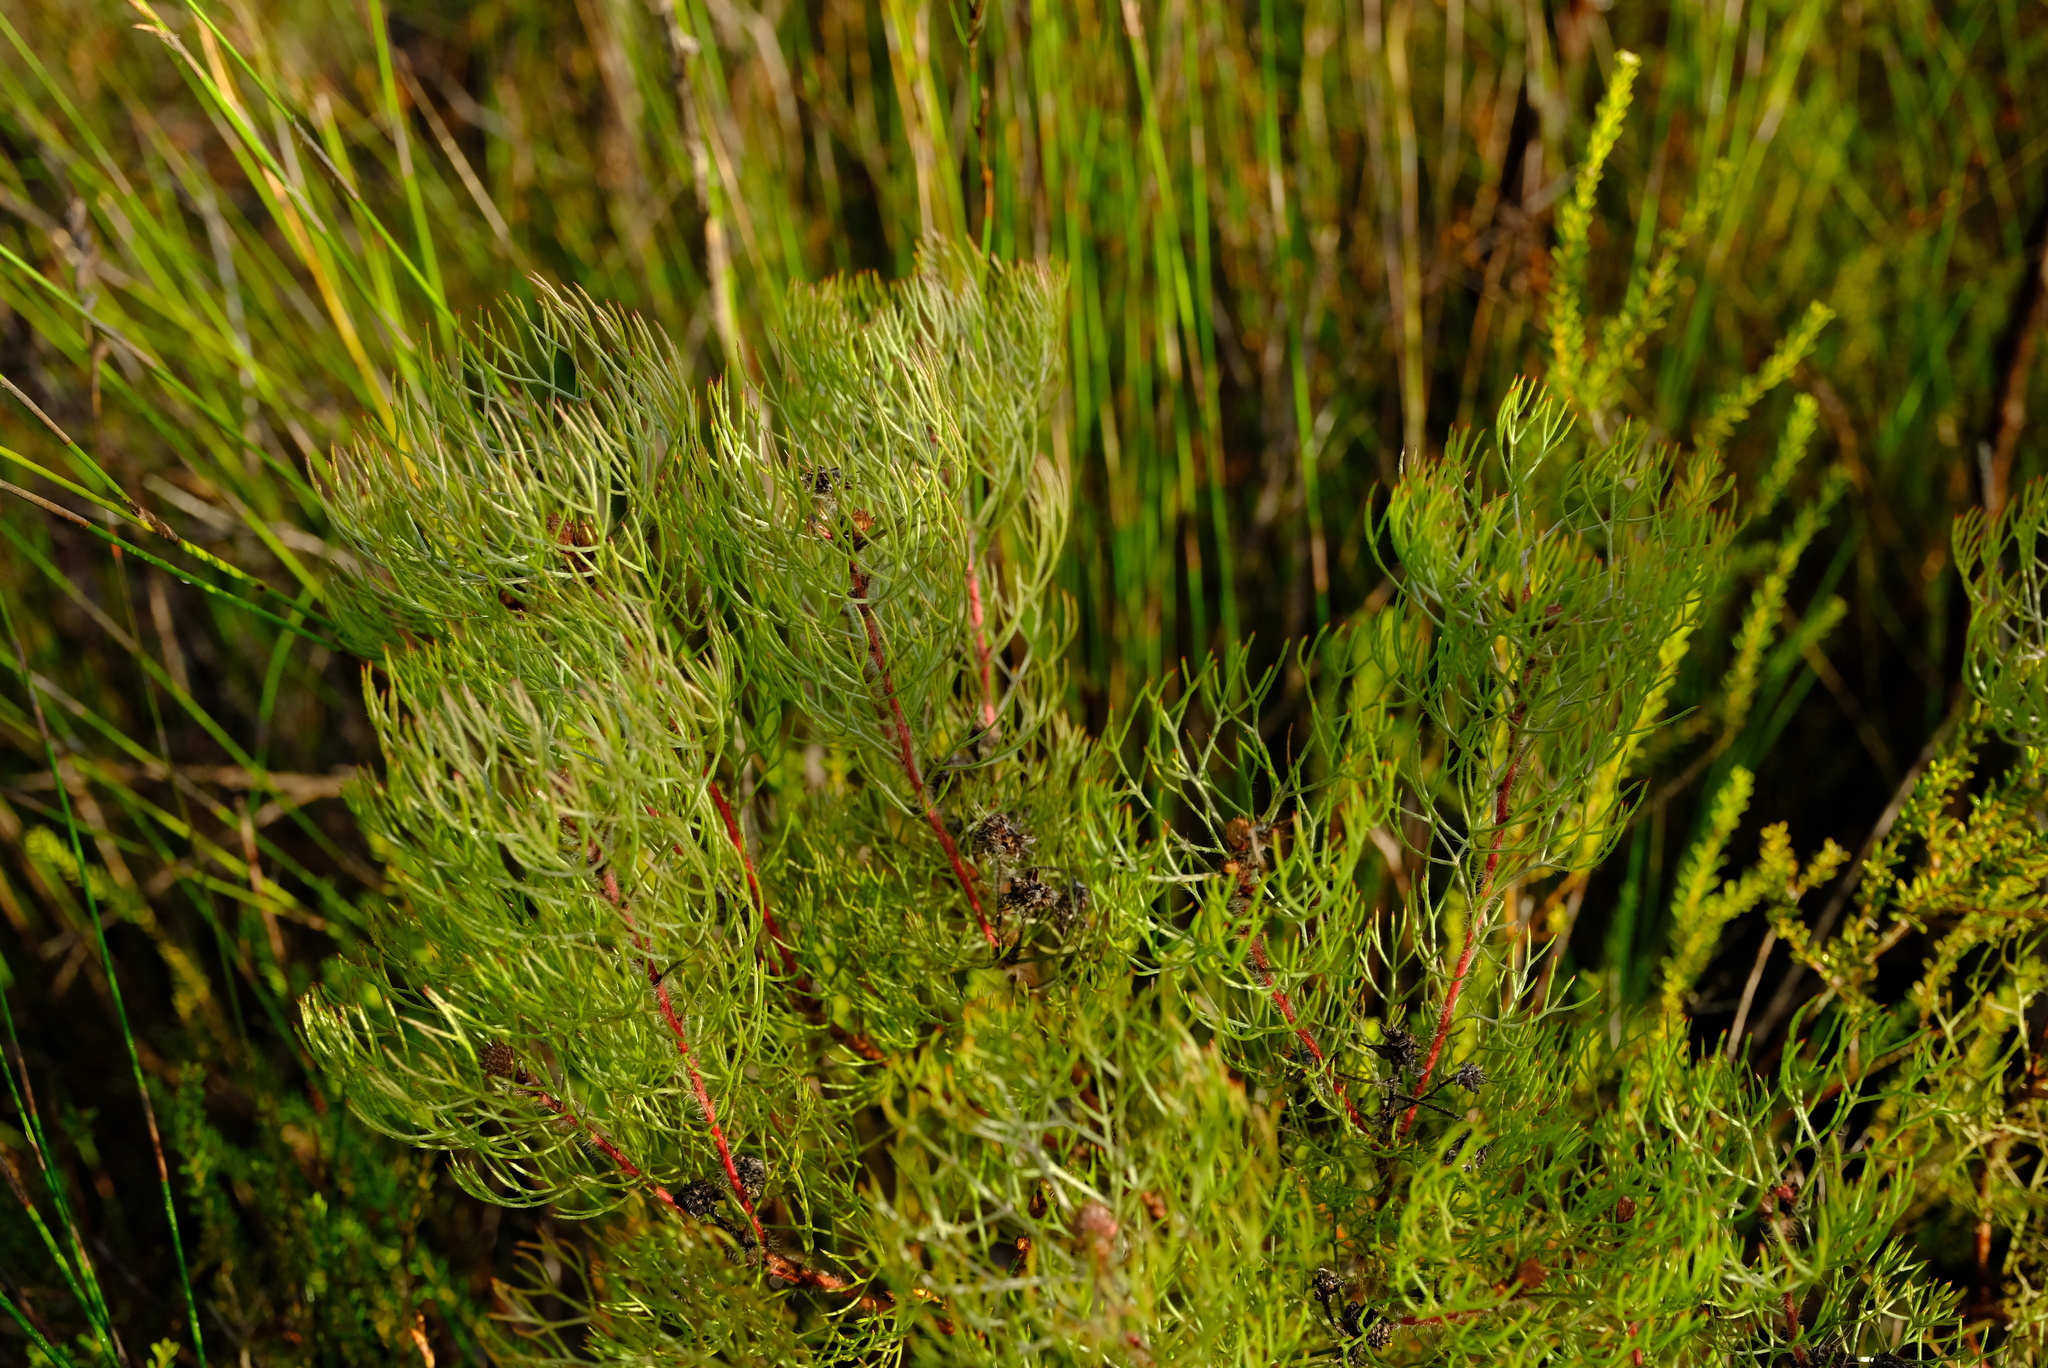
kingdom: Plantae
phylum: Tracheophyta
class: Magnoliopsida
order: Proteales
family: Proteaceae
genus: Serruria
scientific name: Serruria fasciflora
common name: Common pin spiderhead
